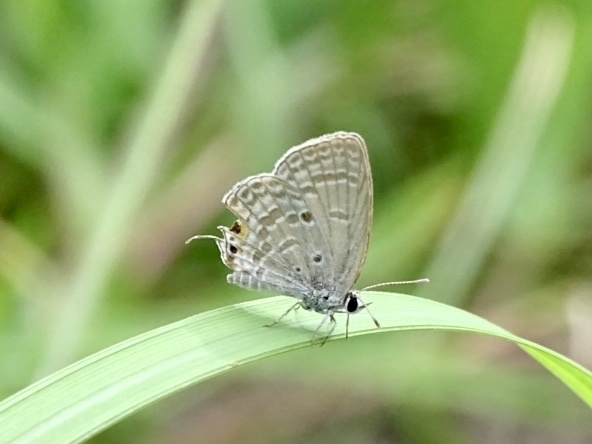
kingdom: Animalia
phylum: Arthropoda
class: Insecta
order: Lepidoptera
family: Lycaenidae
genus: Luthrodes
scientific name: Luthrodes pandava
